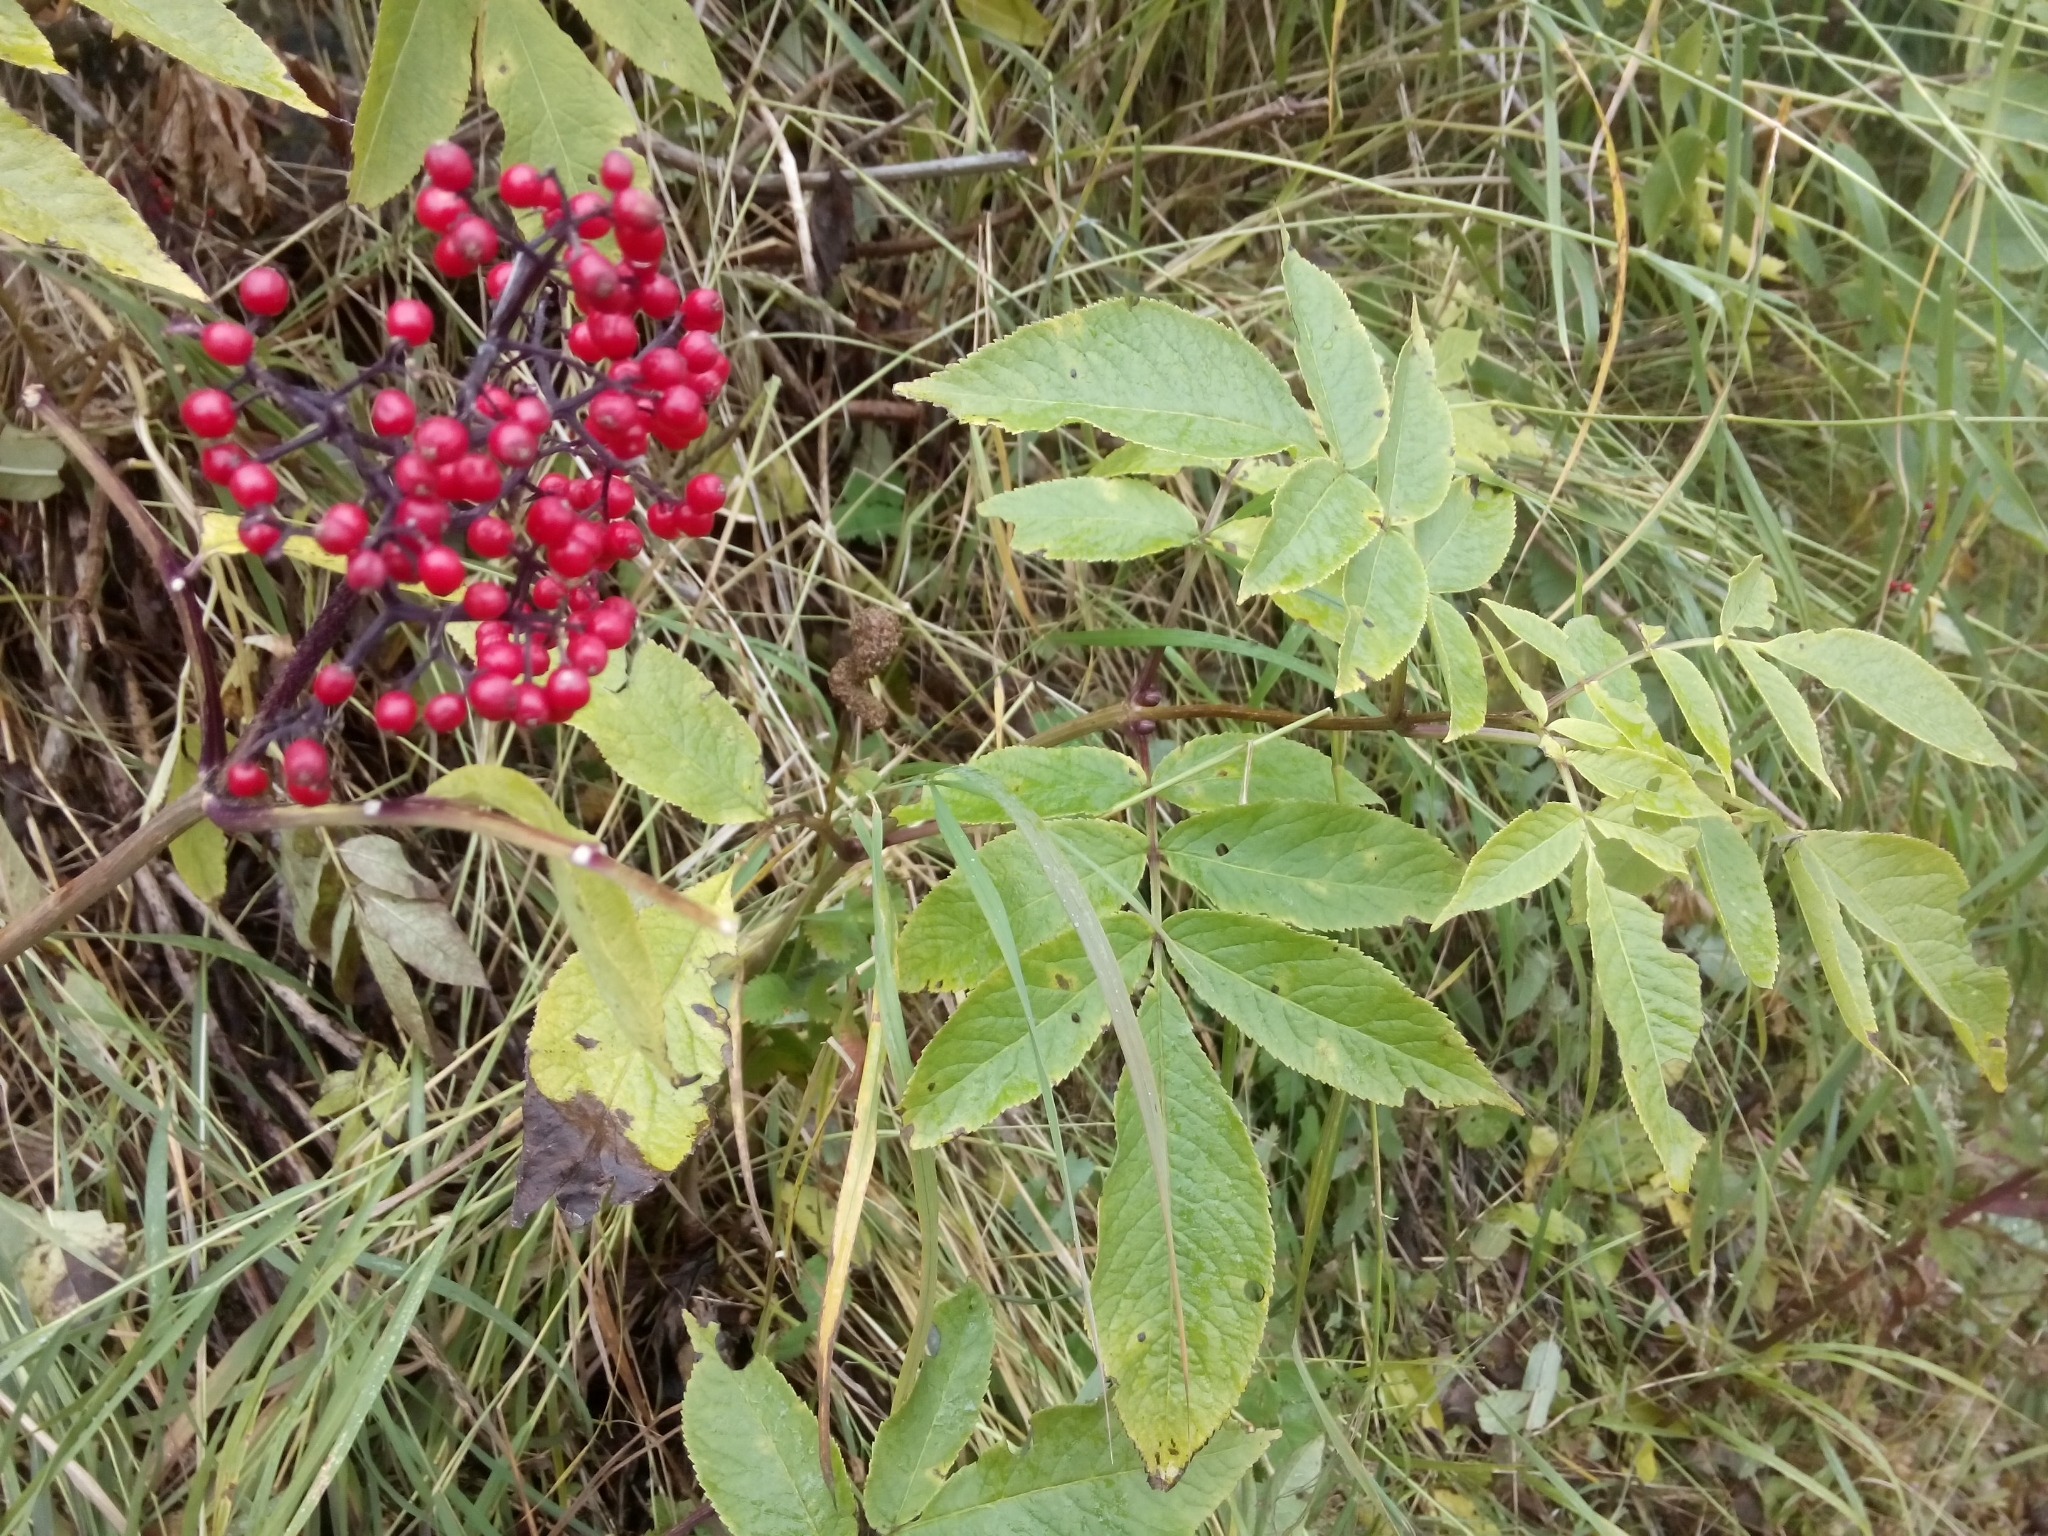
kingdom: Plantae
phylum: Tracheophyta
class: Magnoliopsida
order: Dipsacales
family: Viburnaceae
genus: Sambucus
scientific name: Sambucus racemosa
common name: Red-berried elder
